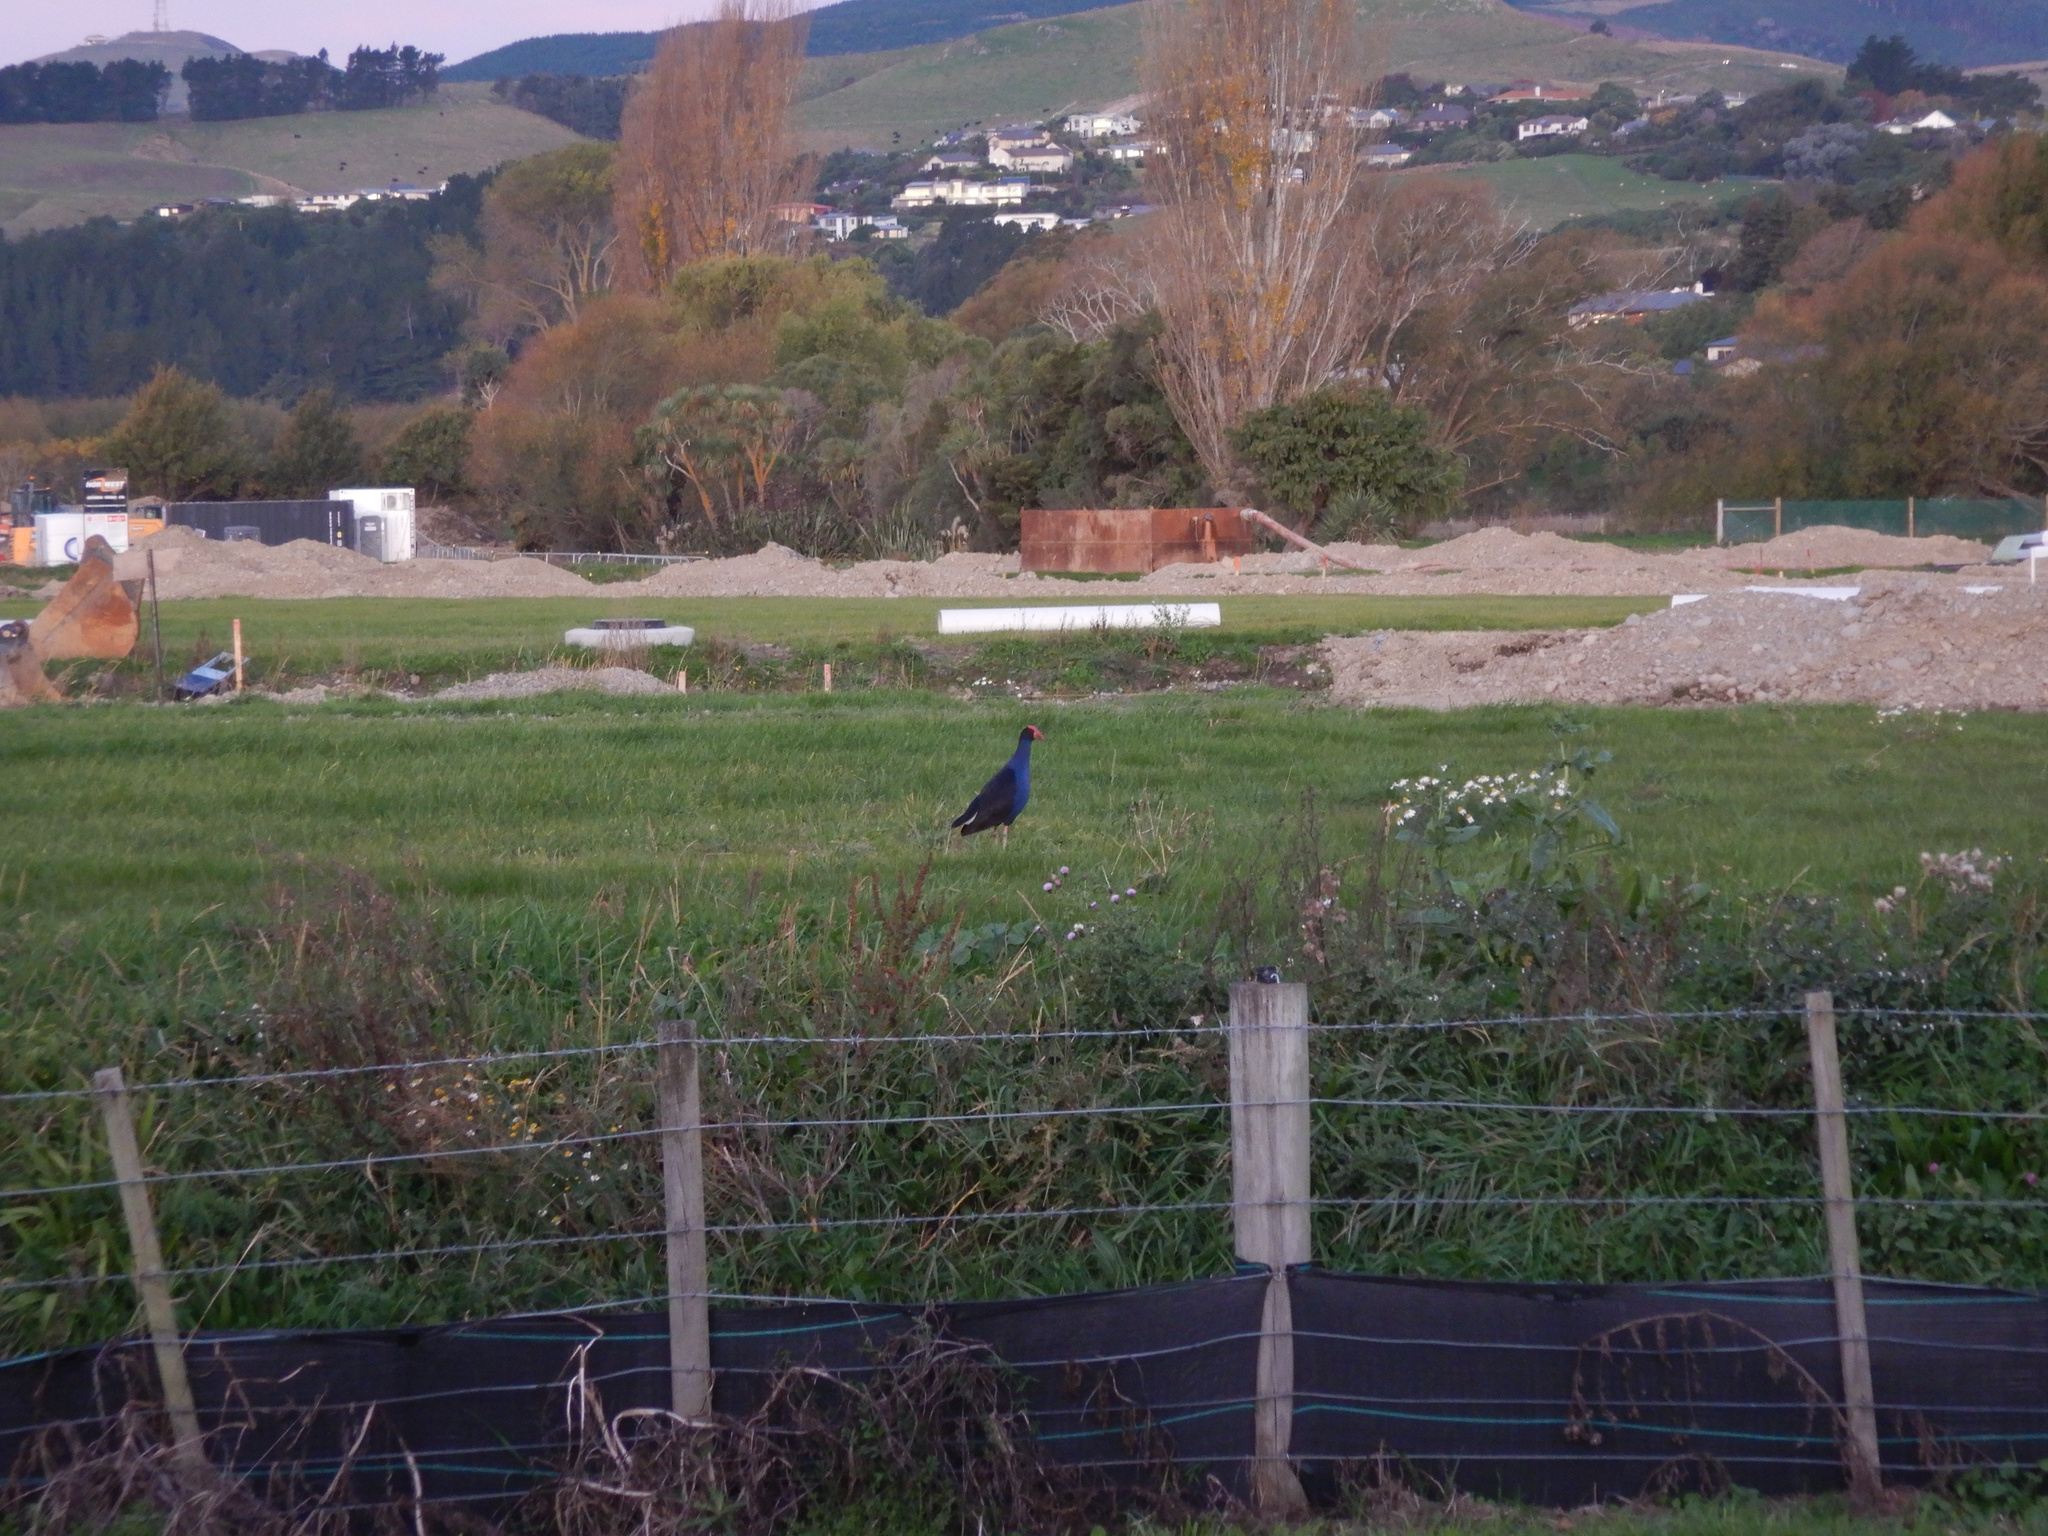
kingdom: Animalia
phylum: Chordata
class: Aves
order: Gruiformes
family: Rallidae
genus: Porphyrio
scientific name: Porphyrio melanotus
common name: Australasian swamphen
